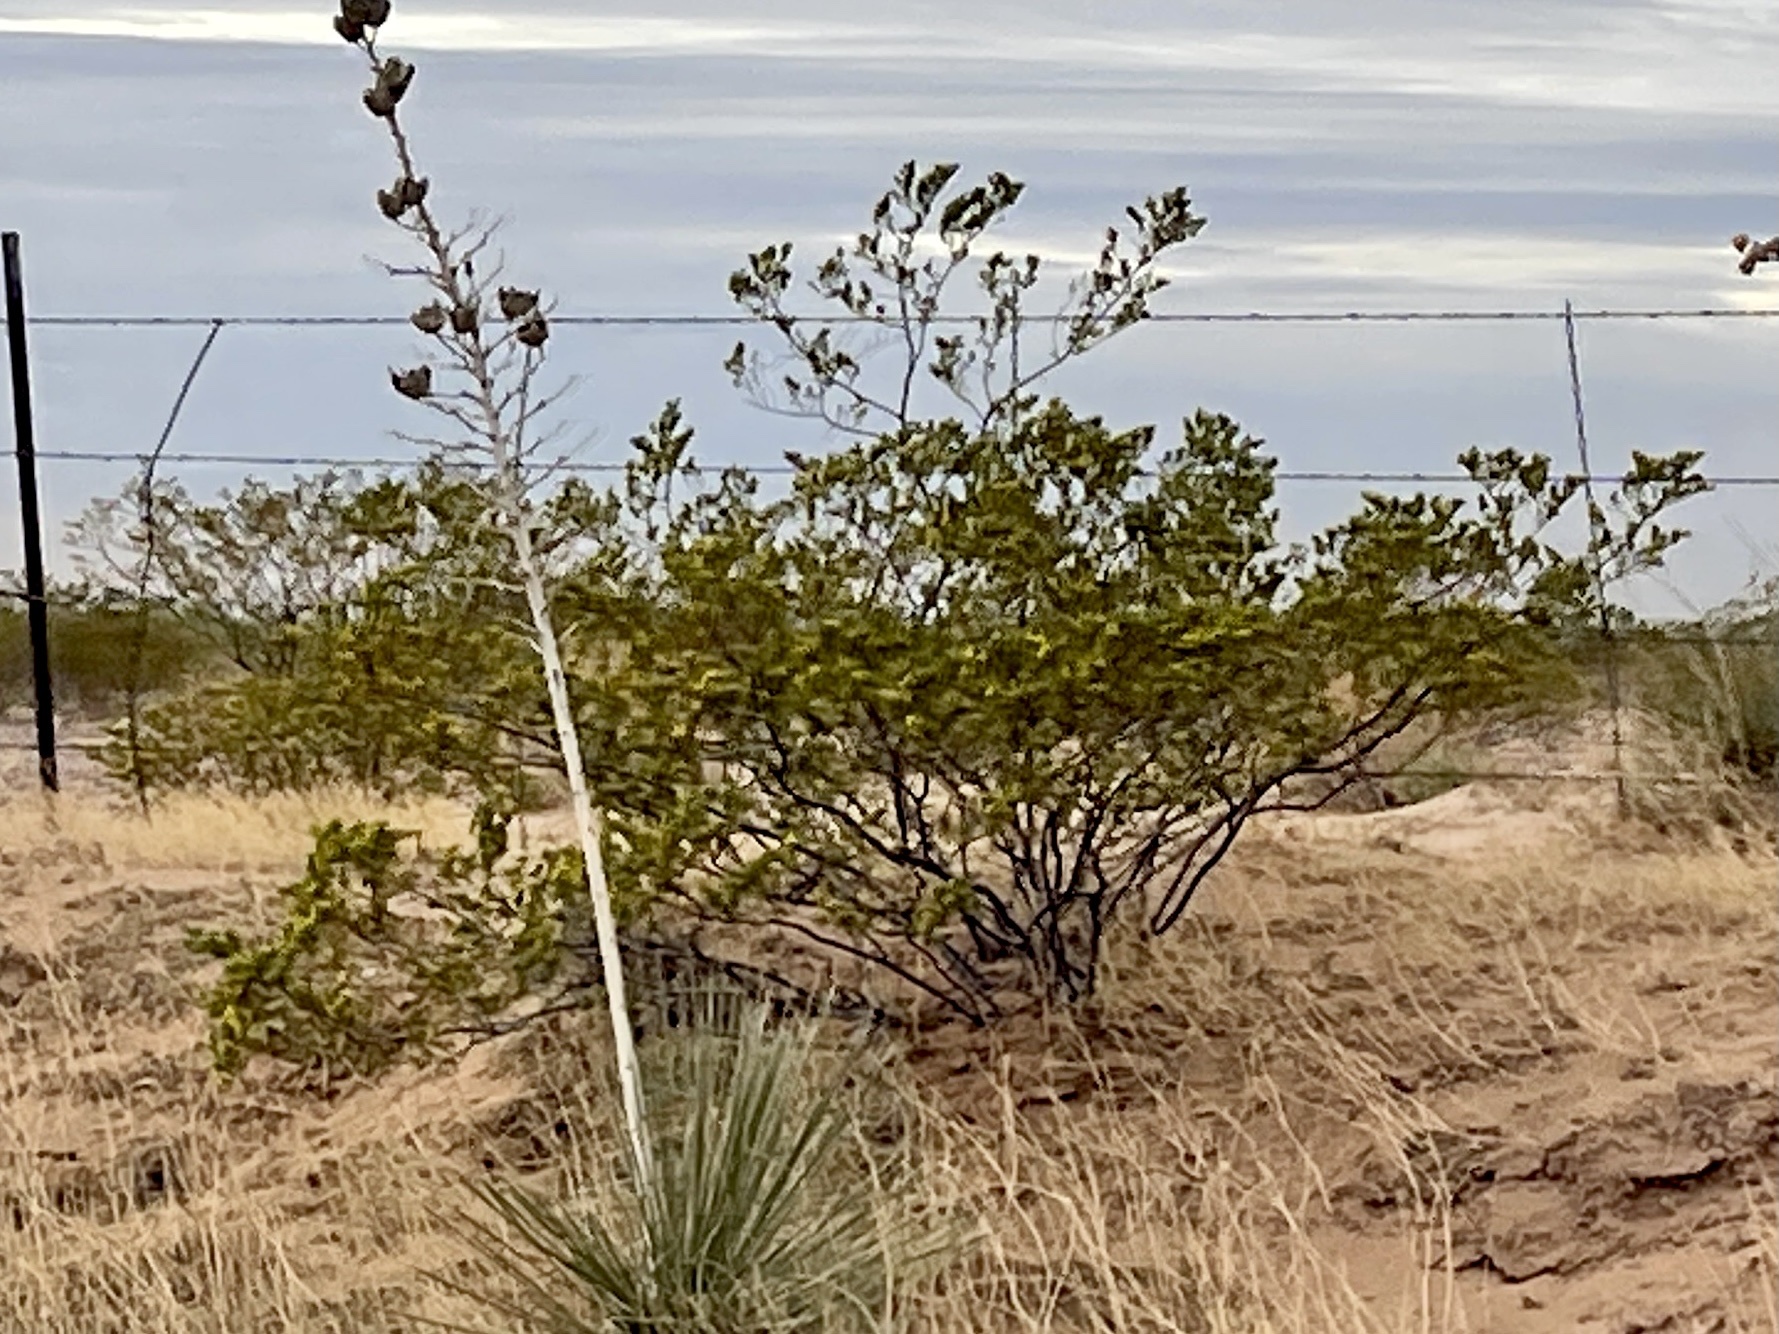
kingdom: Plantae
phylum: Tracheophyta
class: Magnoliopsida
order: Zygophyllales
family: Zygophyllaceae
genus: Larrea
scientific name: Larrea tridentata
